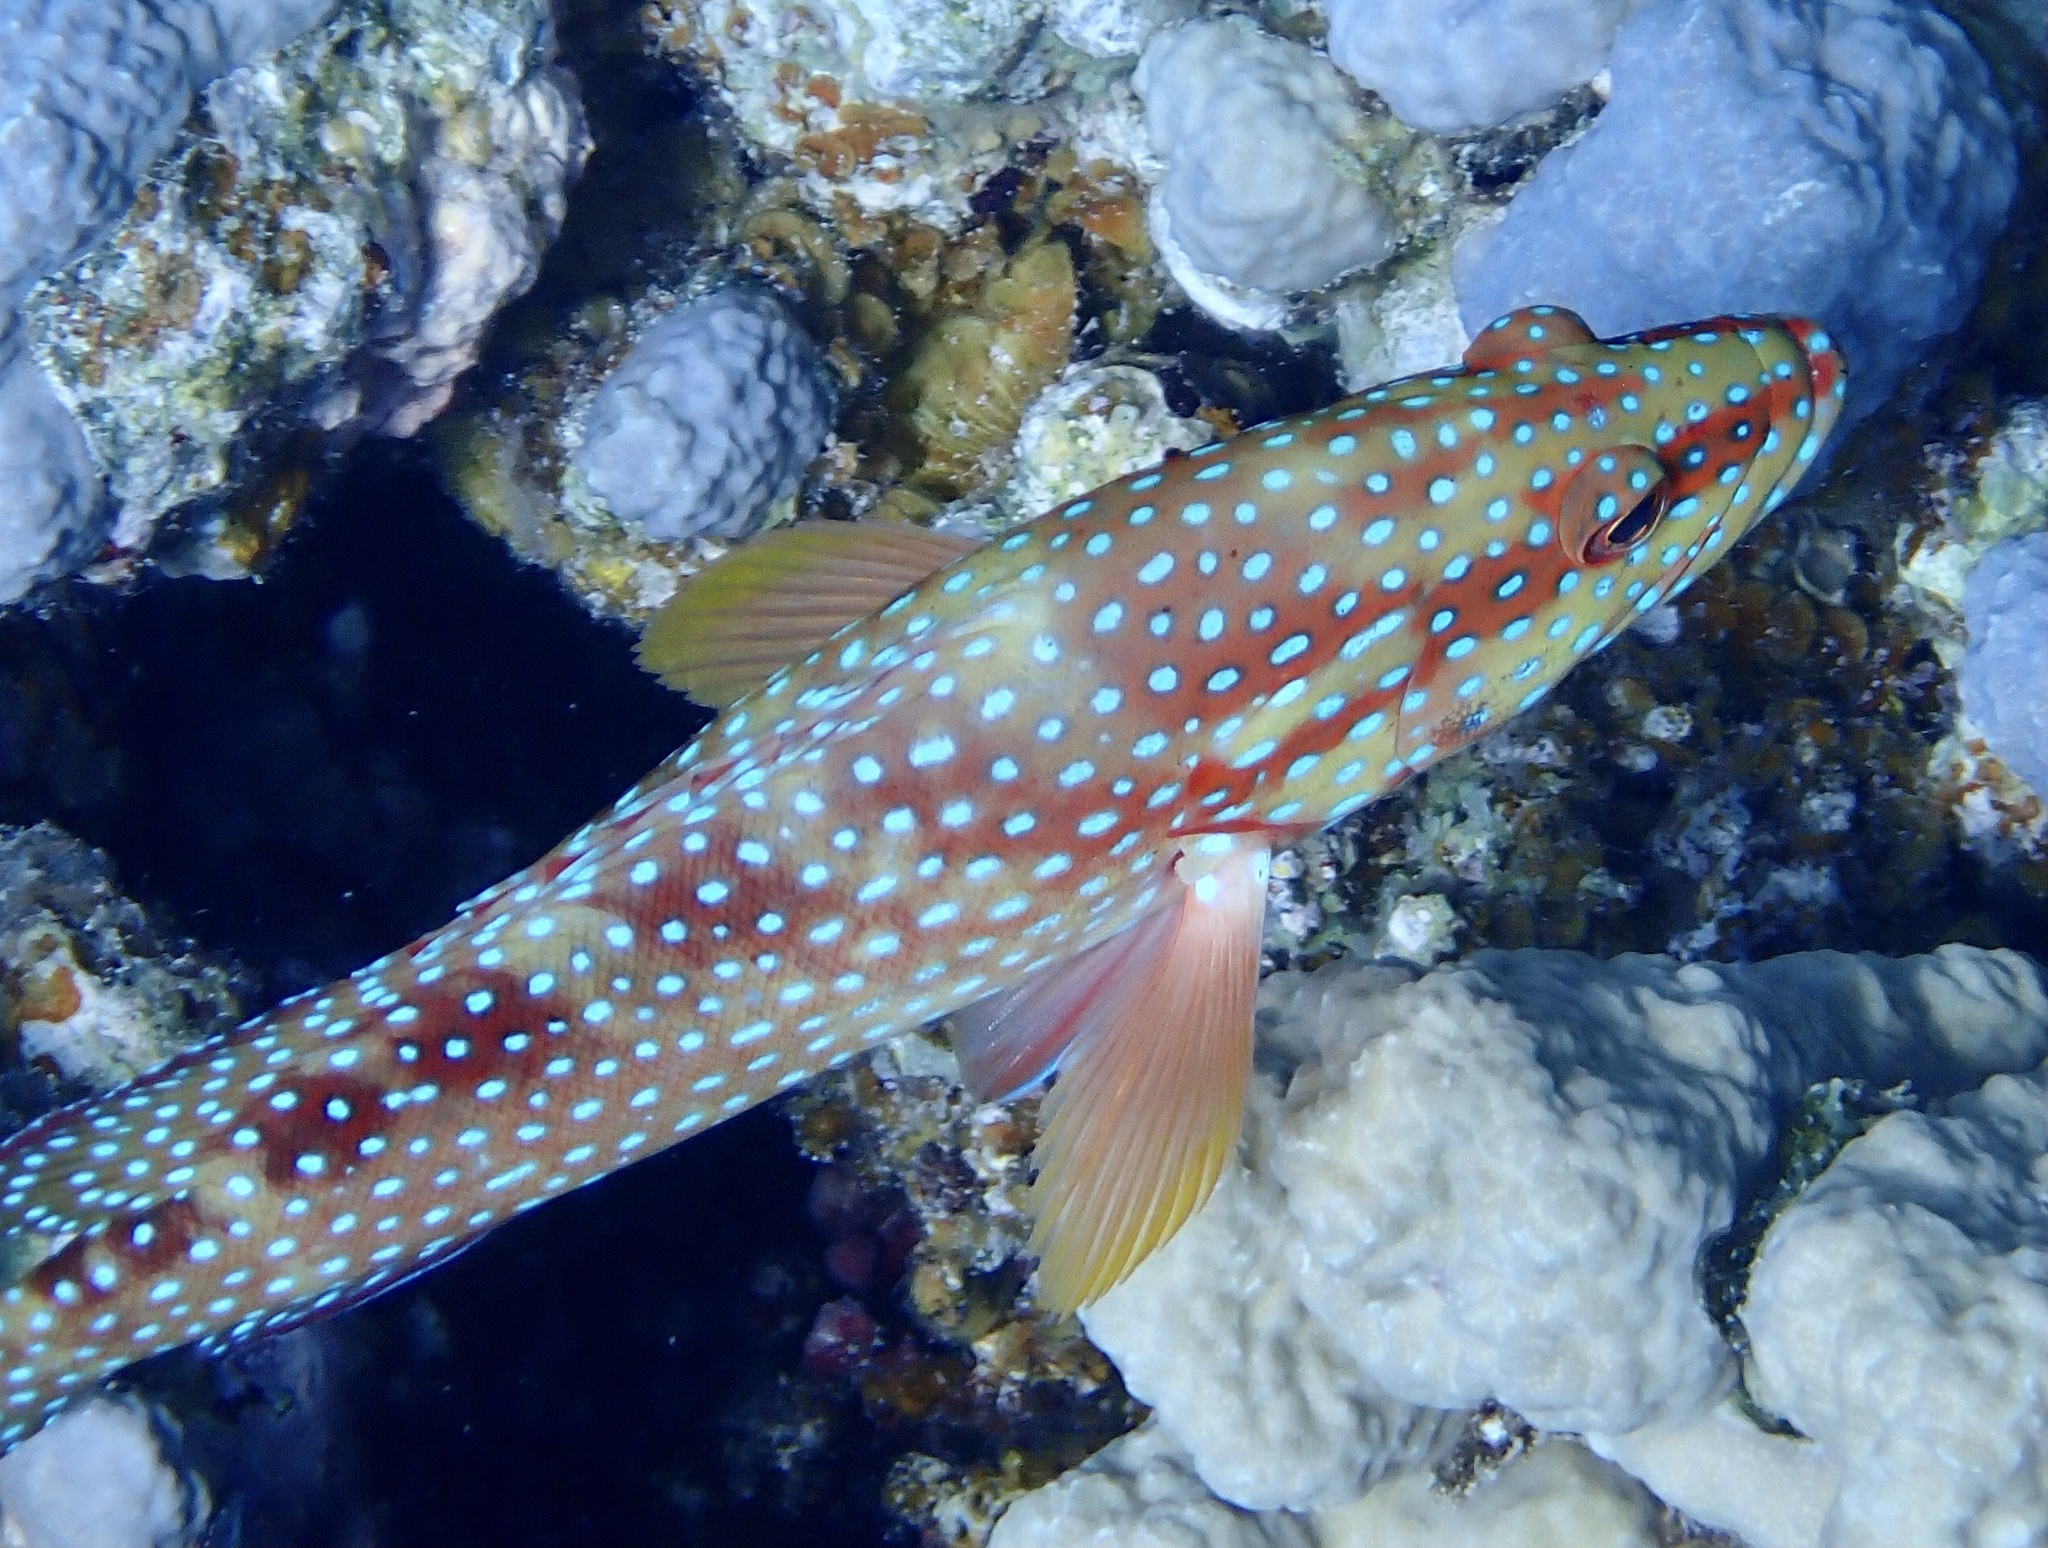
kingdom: Animalia
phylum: Chordata
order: Perciformes
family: Serranidae
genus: Cephalopholis
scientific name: Cephalopholis miniata
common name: Coral hind
